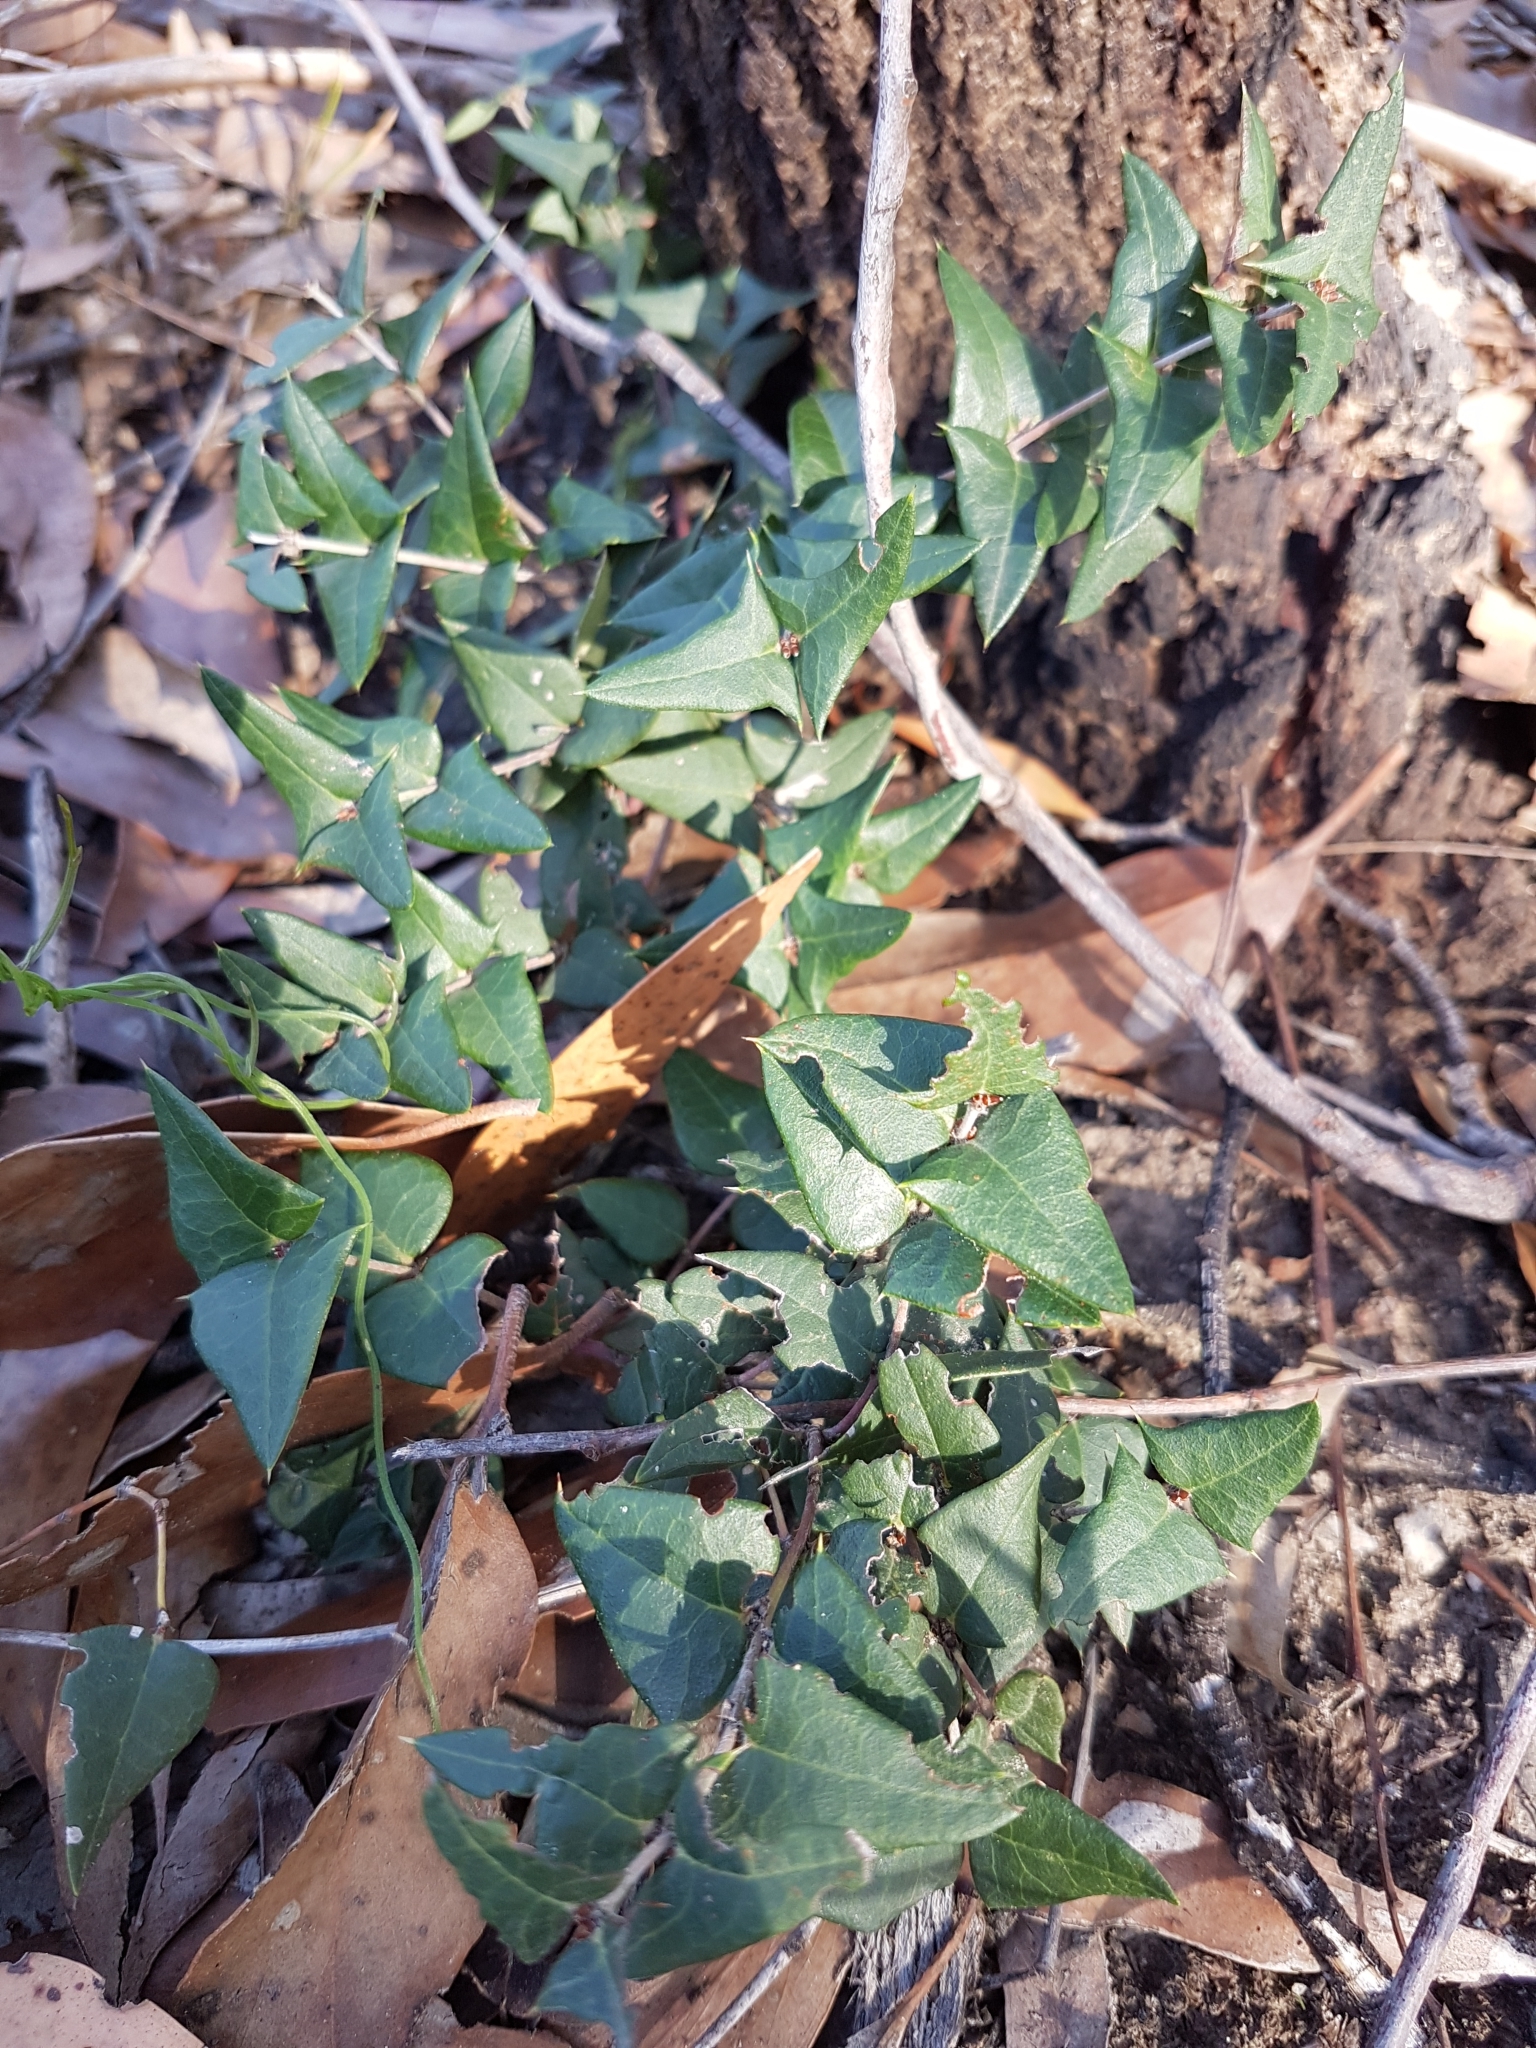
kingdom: Plantae
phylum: Tracheophyta
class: Magnoliopsida
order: Fabales
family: Fabaceae
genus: Platylobium
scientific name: Platylobium obtusangulum
